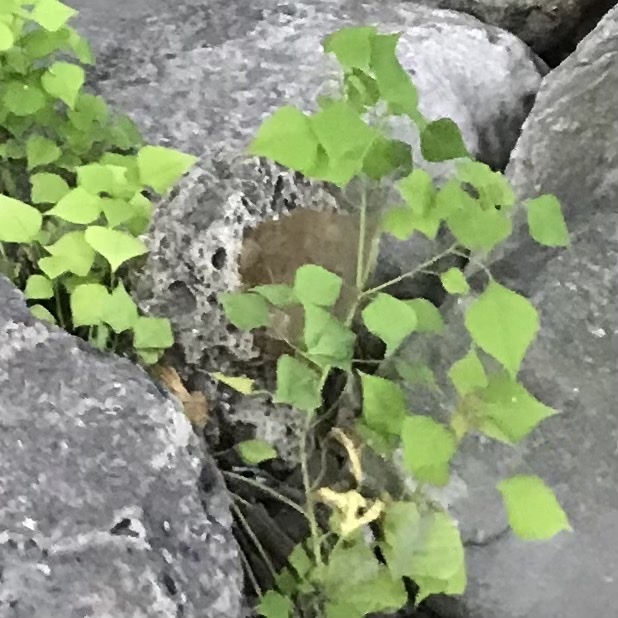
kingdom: Plantae
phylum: Tracheophyta
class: Magnoliopsida
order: Malpighiales
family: Euphorbiaceae
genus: Triadica
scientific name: Triadica sebifera
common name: Chinese tallow
